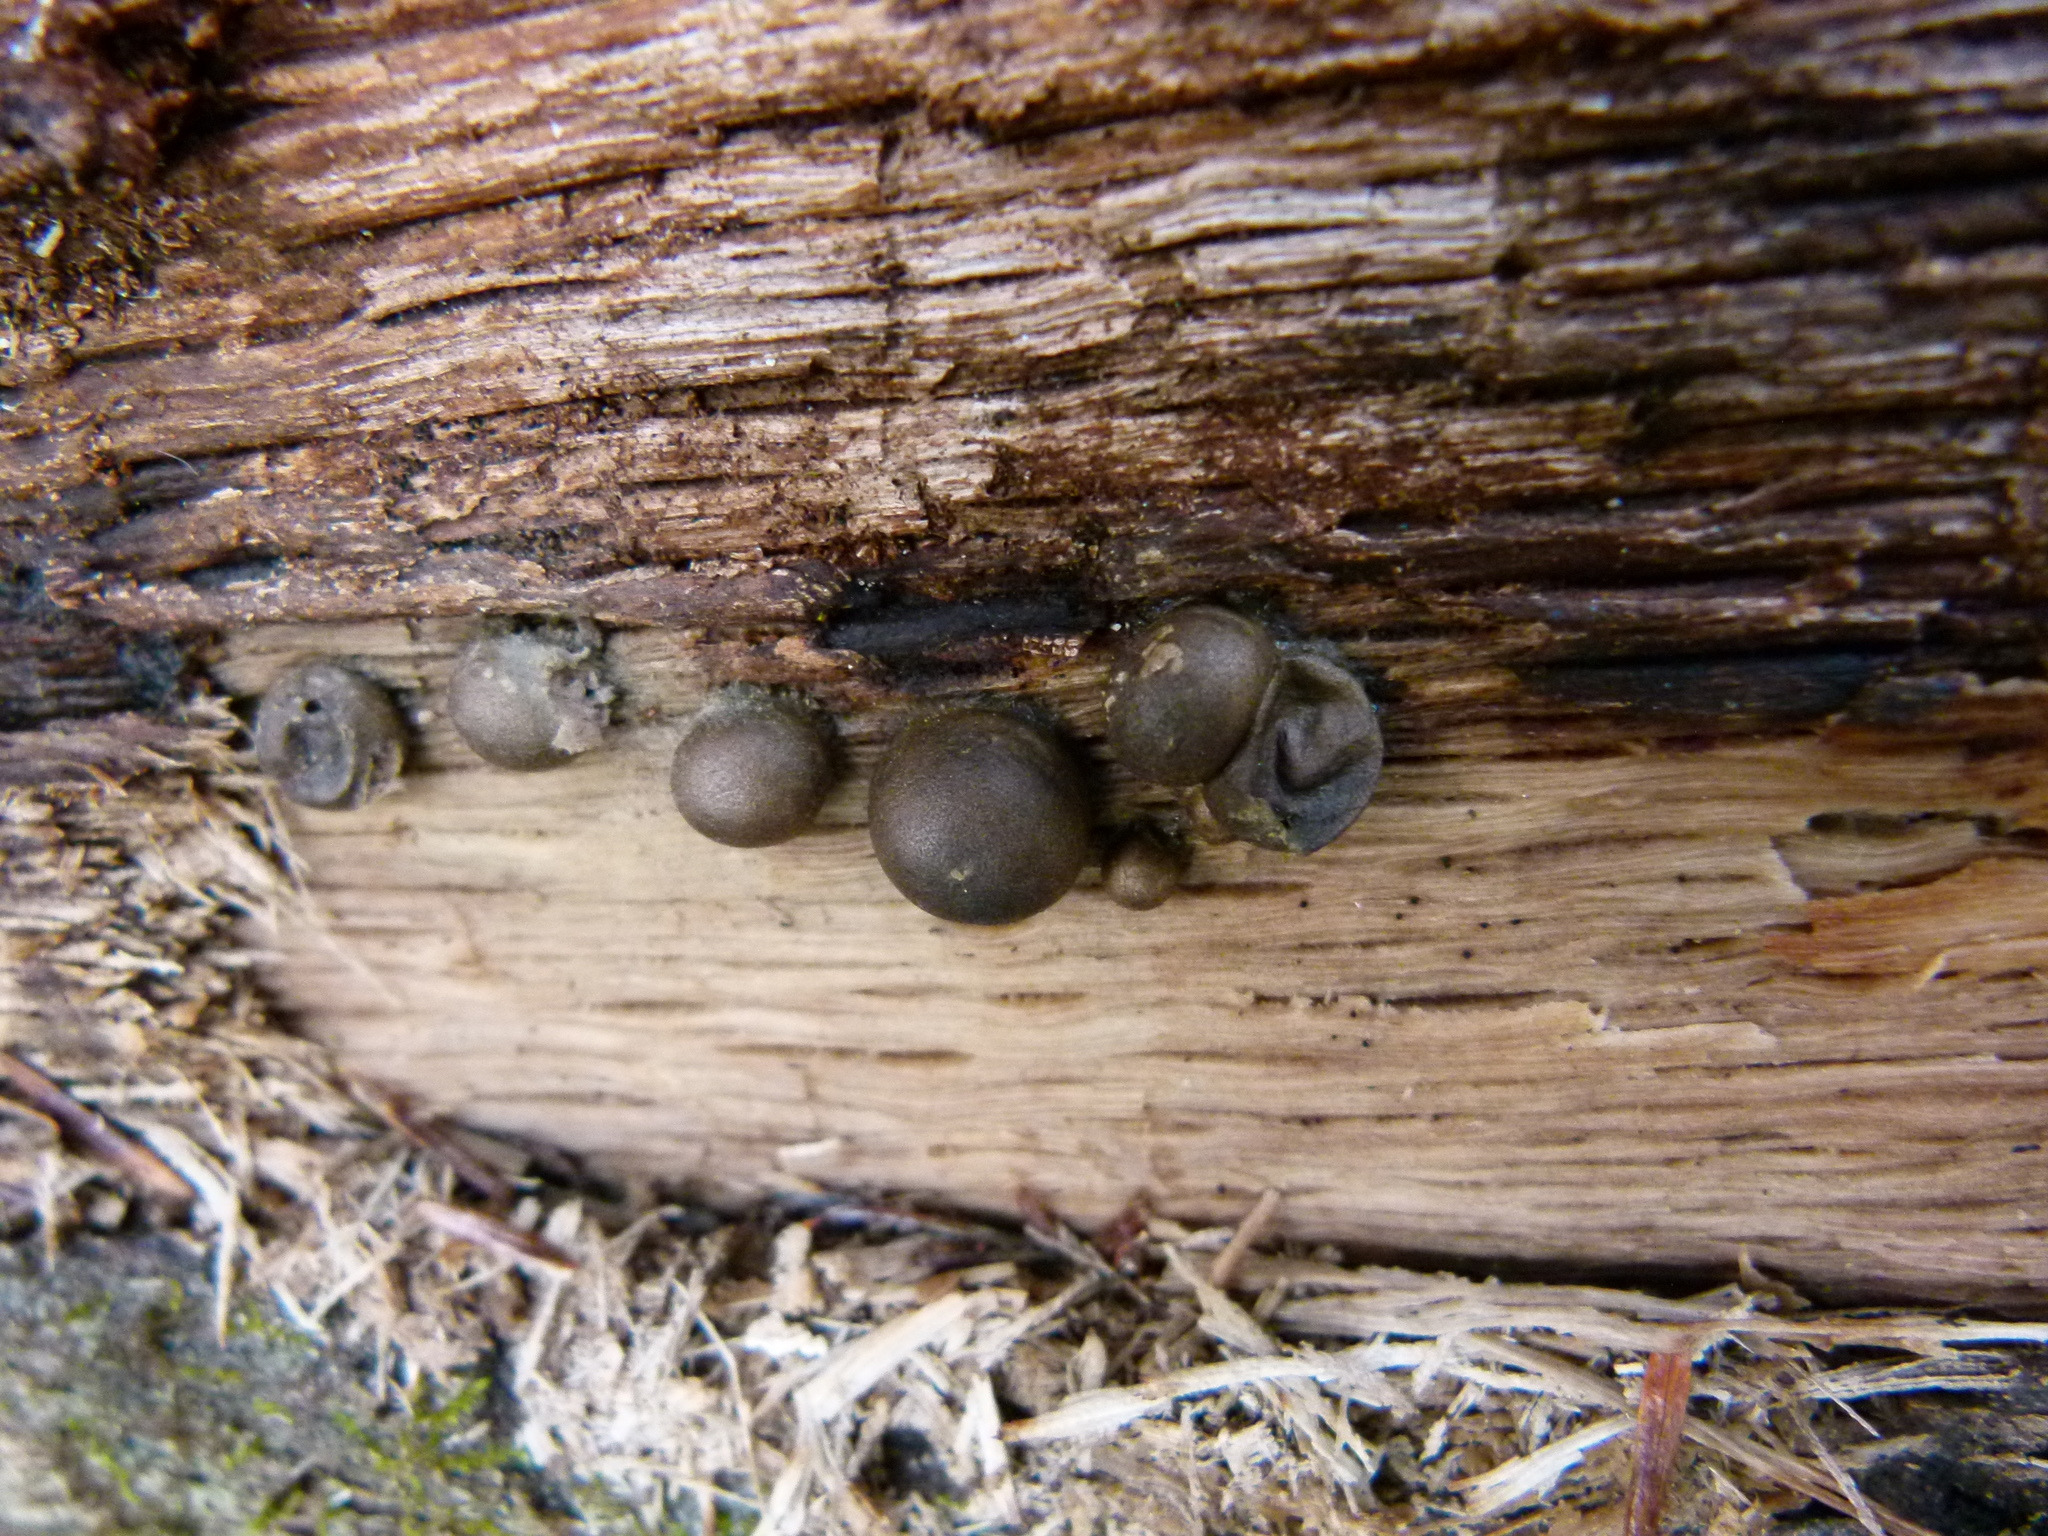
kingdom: Protozoa
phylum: Mycetozoa
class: Myxomycetes
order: Cribrariales
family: Tubiferaceae
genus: Lycogala
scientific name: Lycogala epidendrum
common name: Wolf's milk
